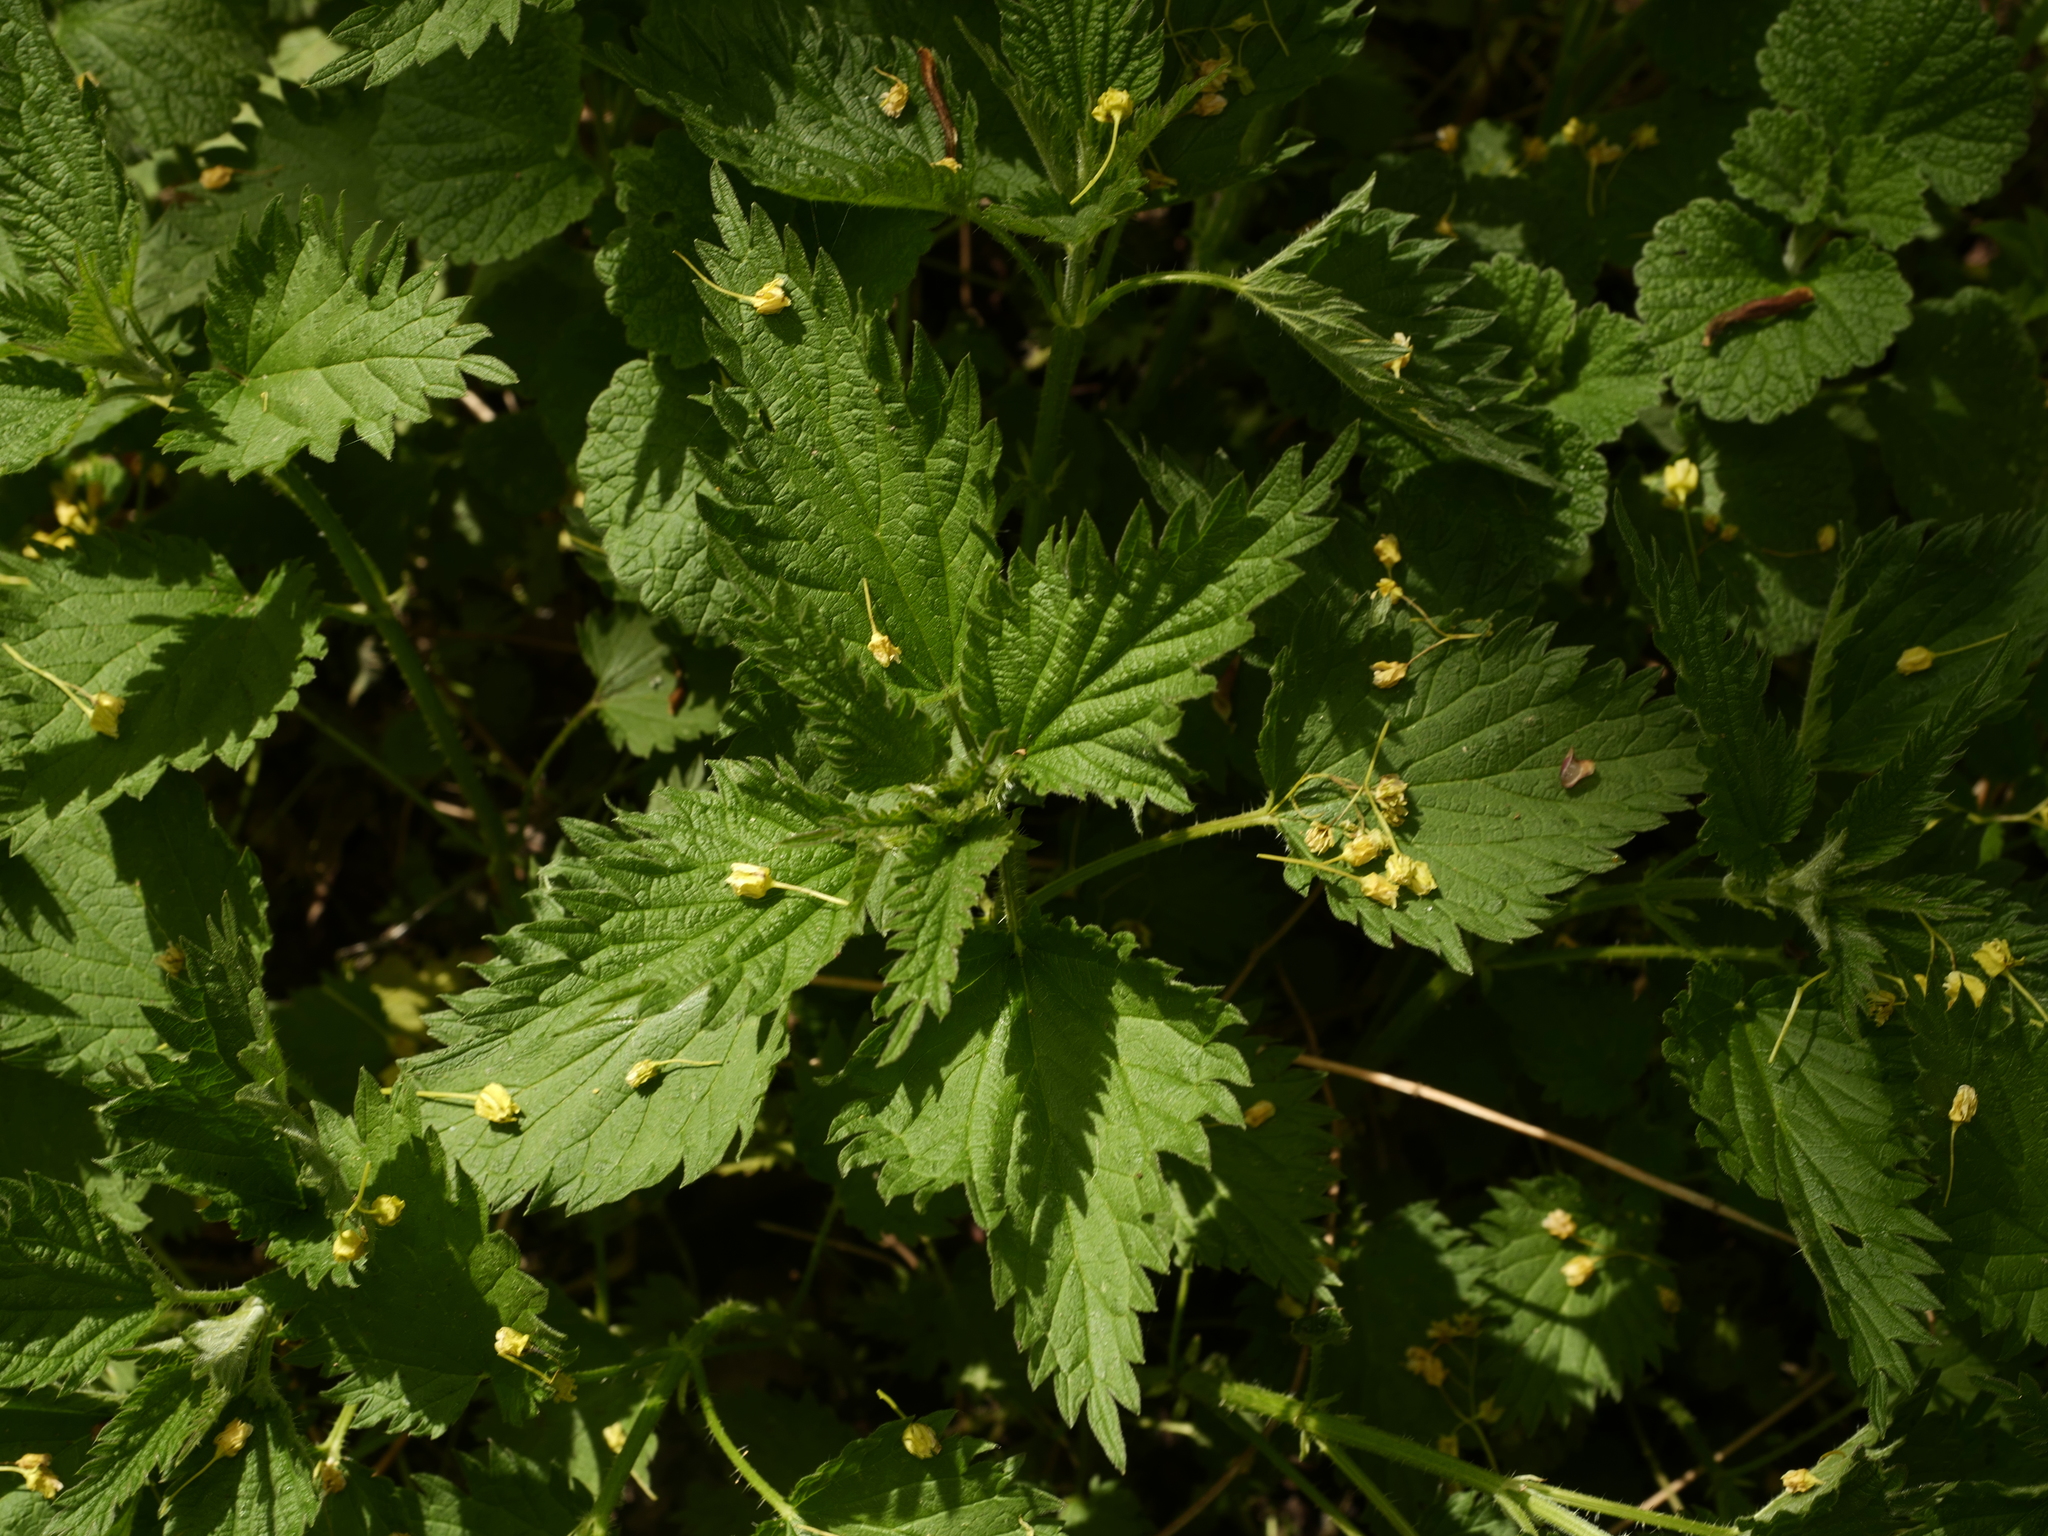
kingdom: Plantae
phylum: Tracheophyta
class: Magnoliopsida
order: Rosales
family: Urticaceae
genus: Urtica
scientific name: Urtica dioica
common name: Common nettle
